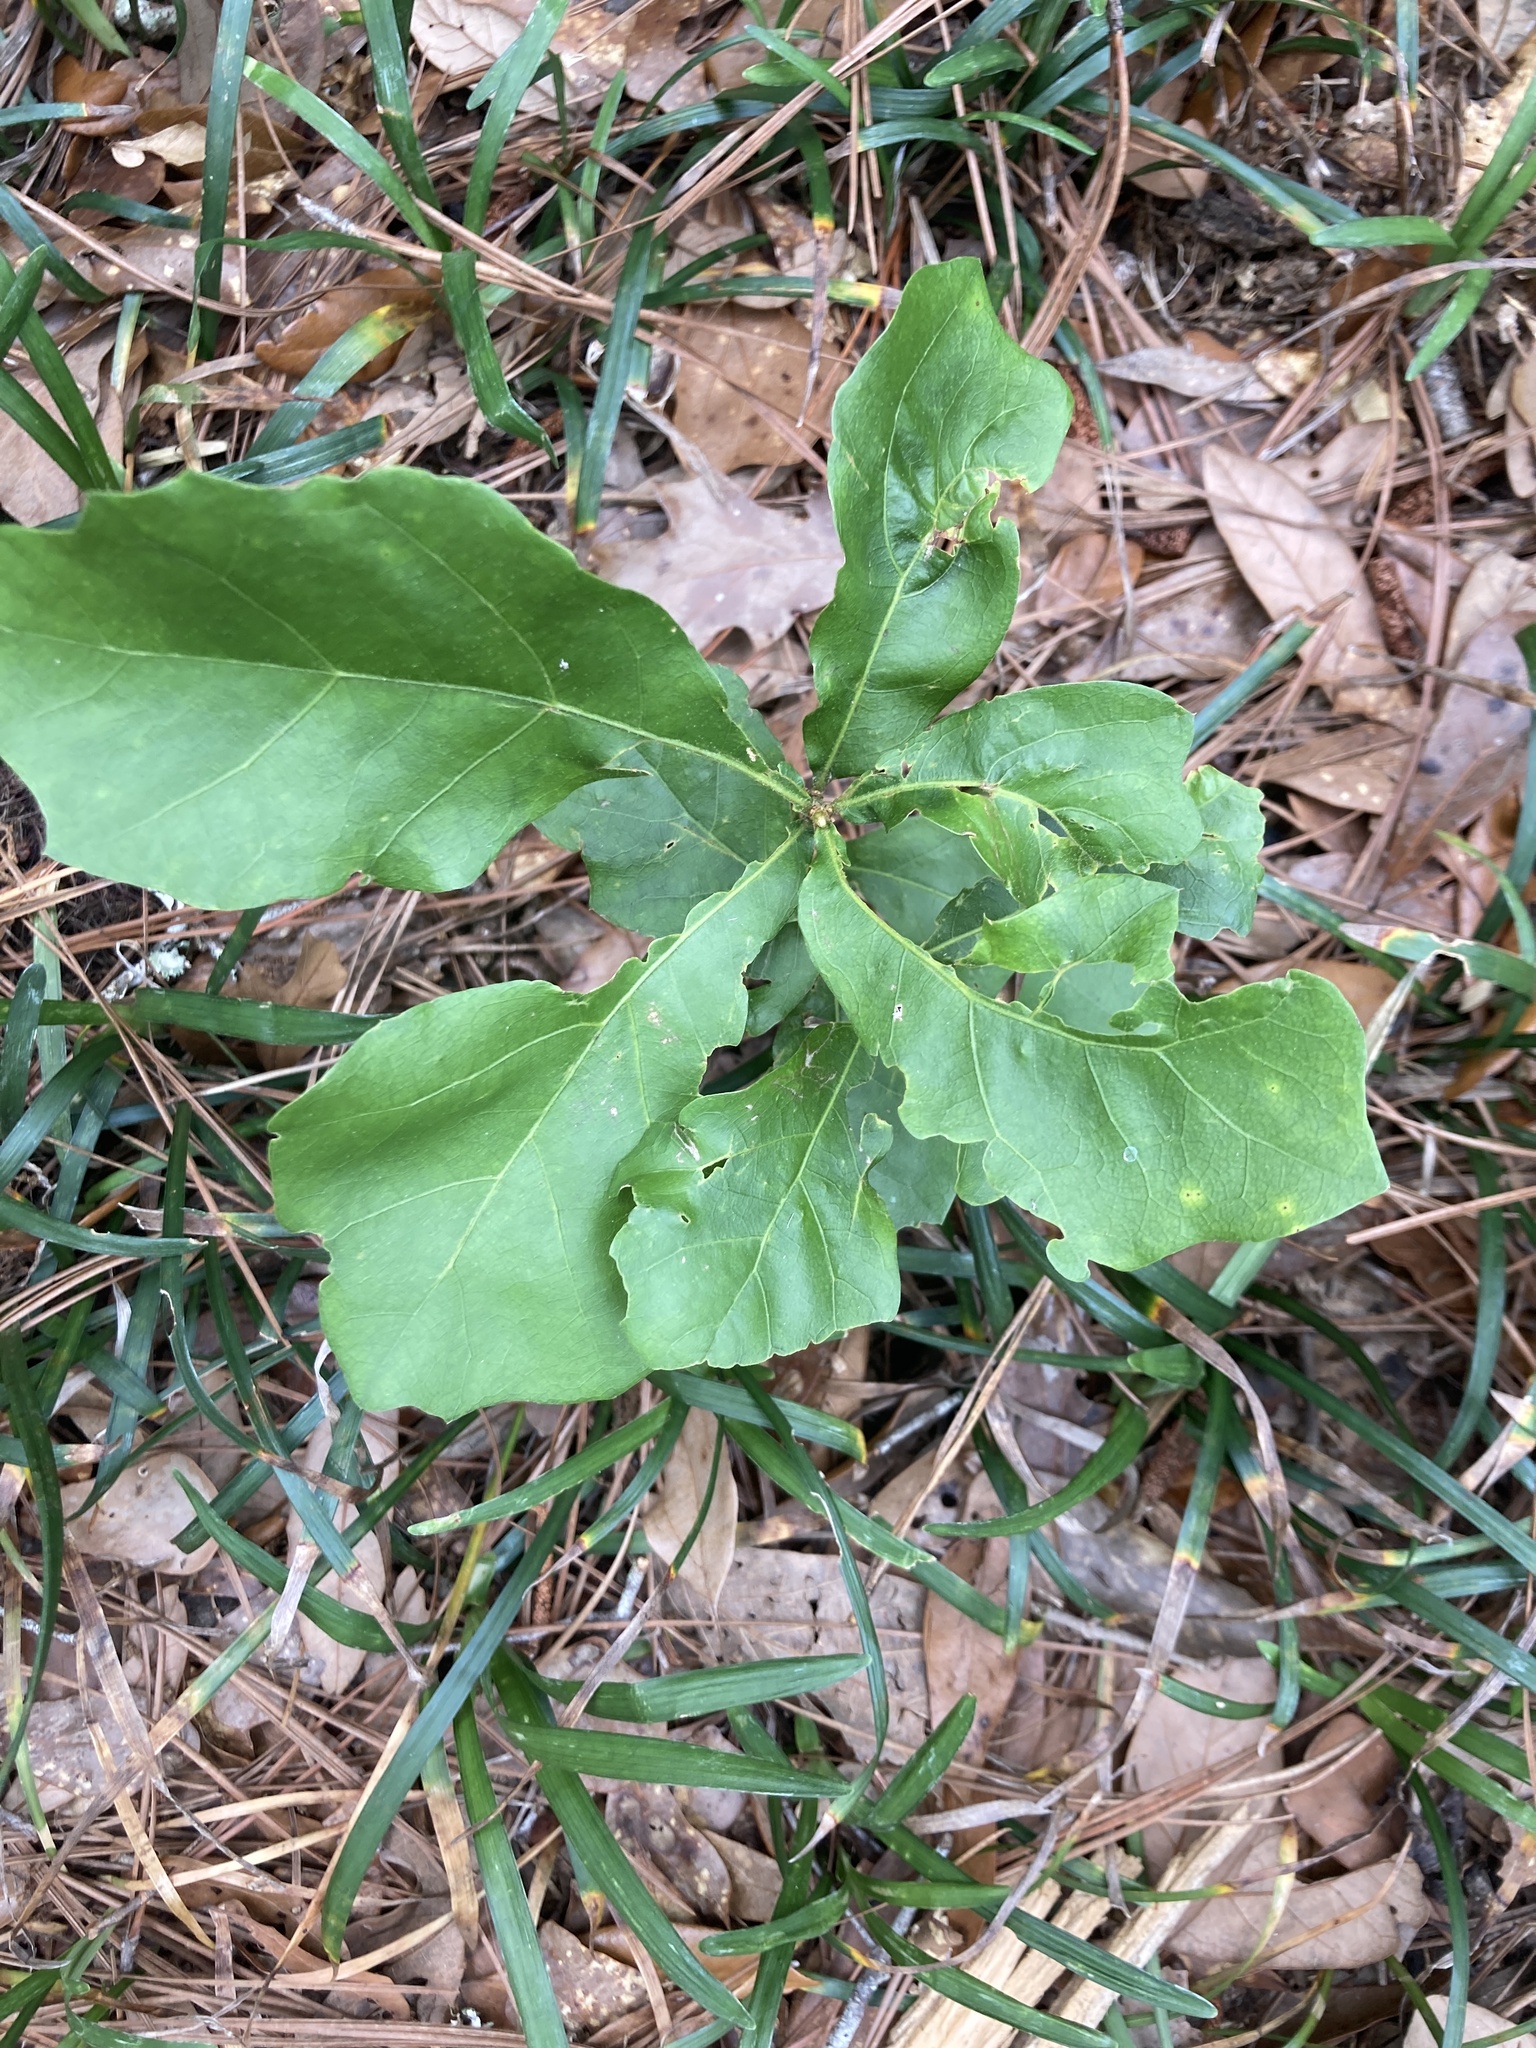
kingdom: Plantae
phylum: Tracheophyta
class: Magnoliopsida
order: Fagales
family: Fagaceae
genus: Quercus
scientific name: Quercus nigra
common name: Water oak
